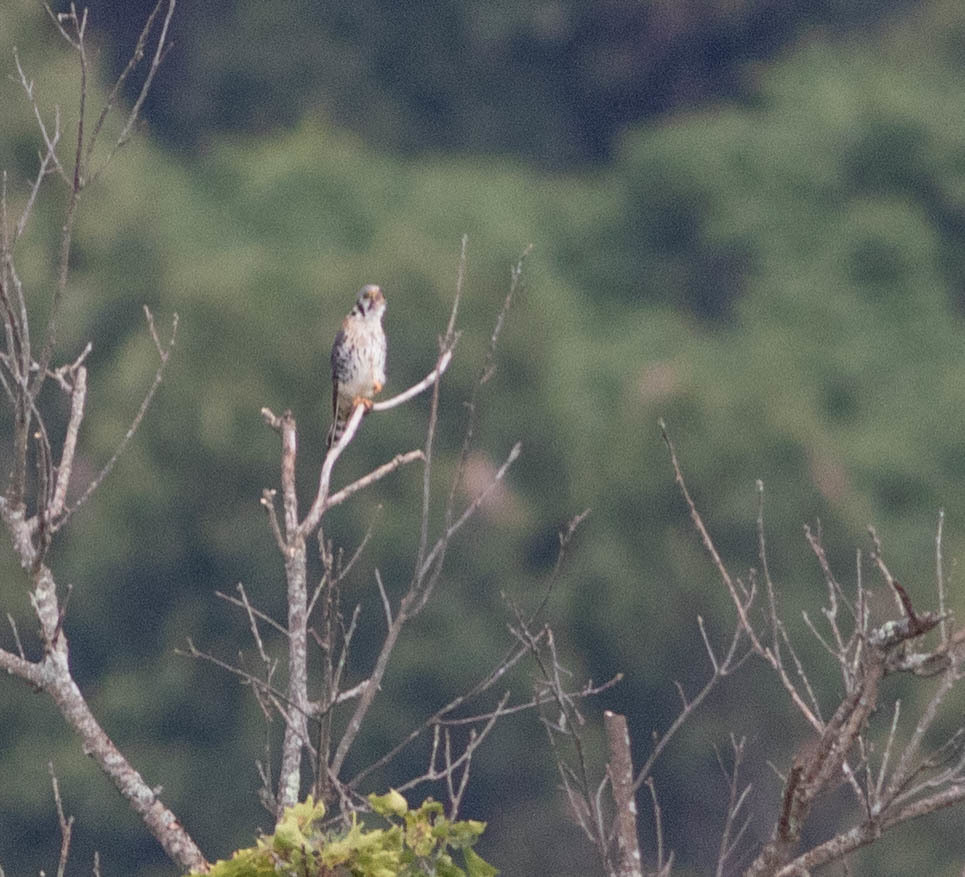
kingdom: Animalia
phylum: Chordata
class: Aves
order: Falconiformes
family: Falconidae
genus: Falco
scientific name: Falco sparverius
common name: American kestrel
